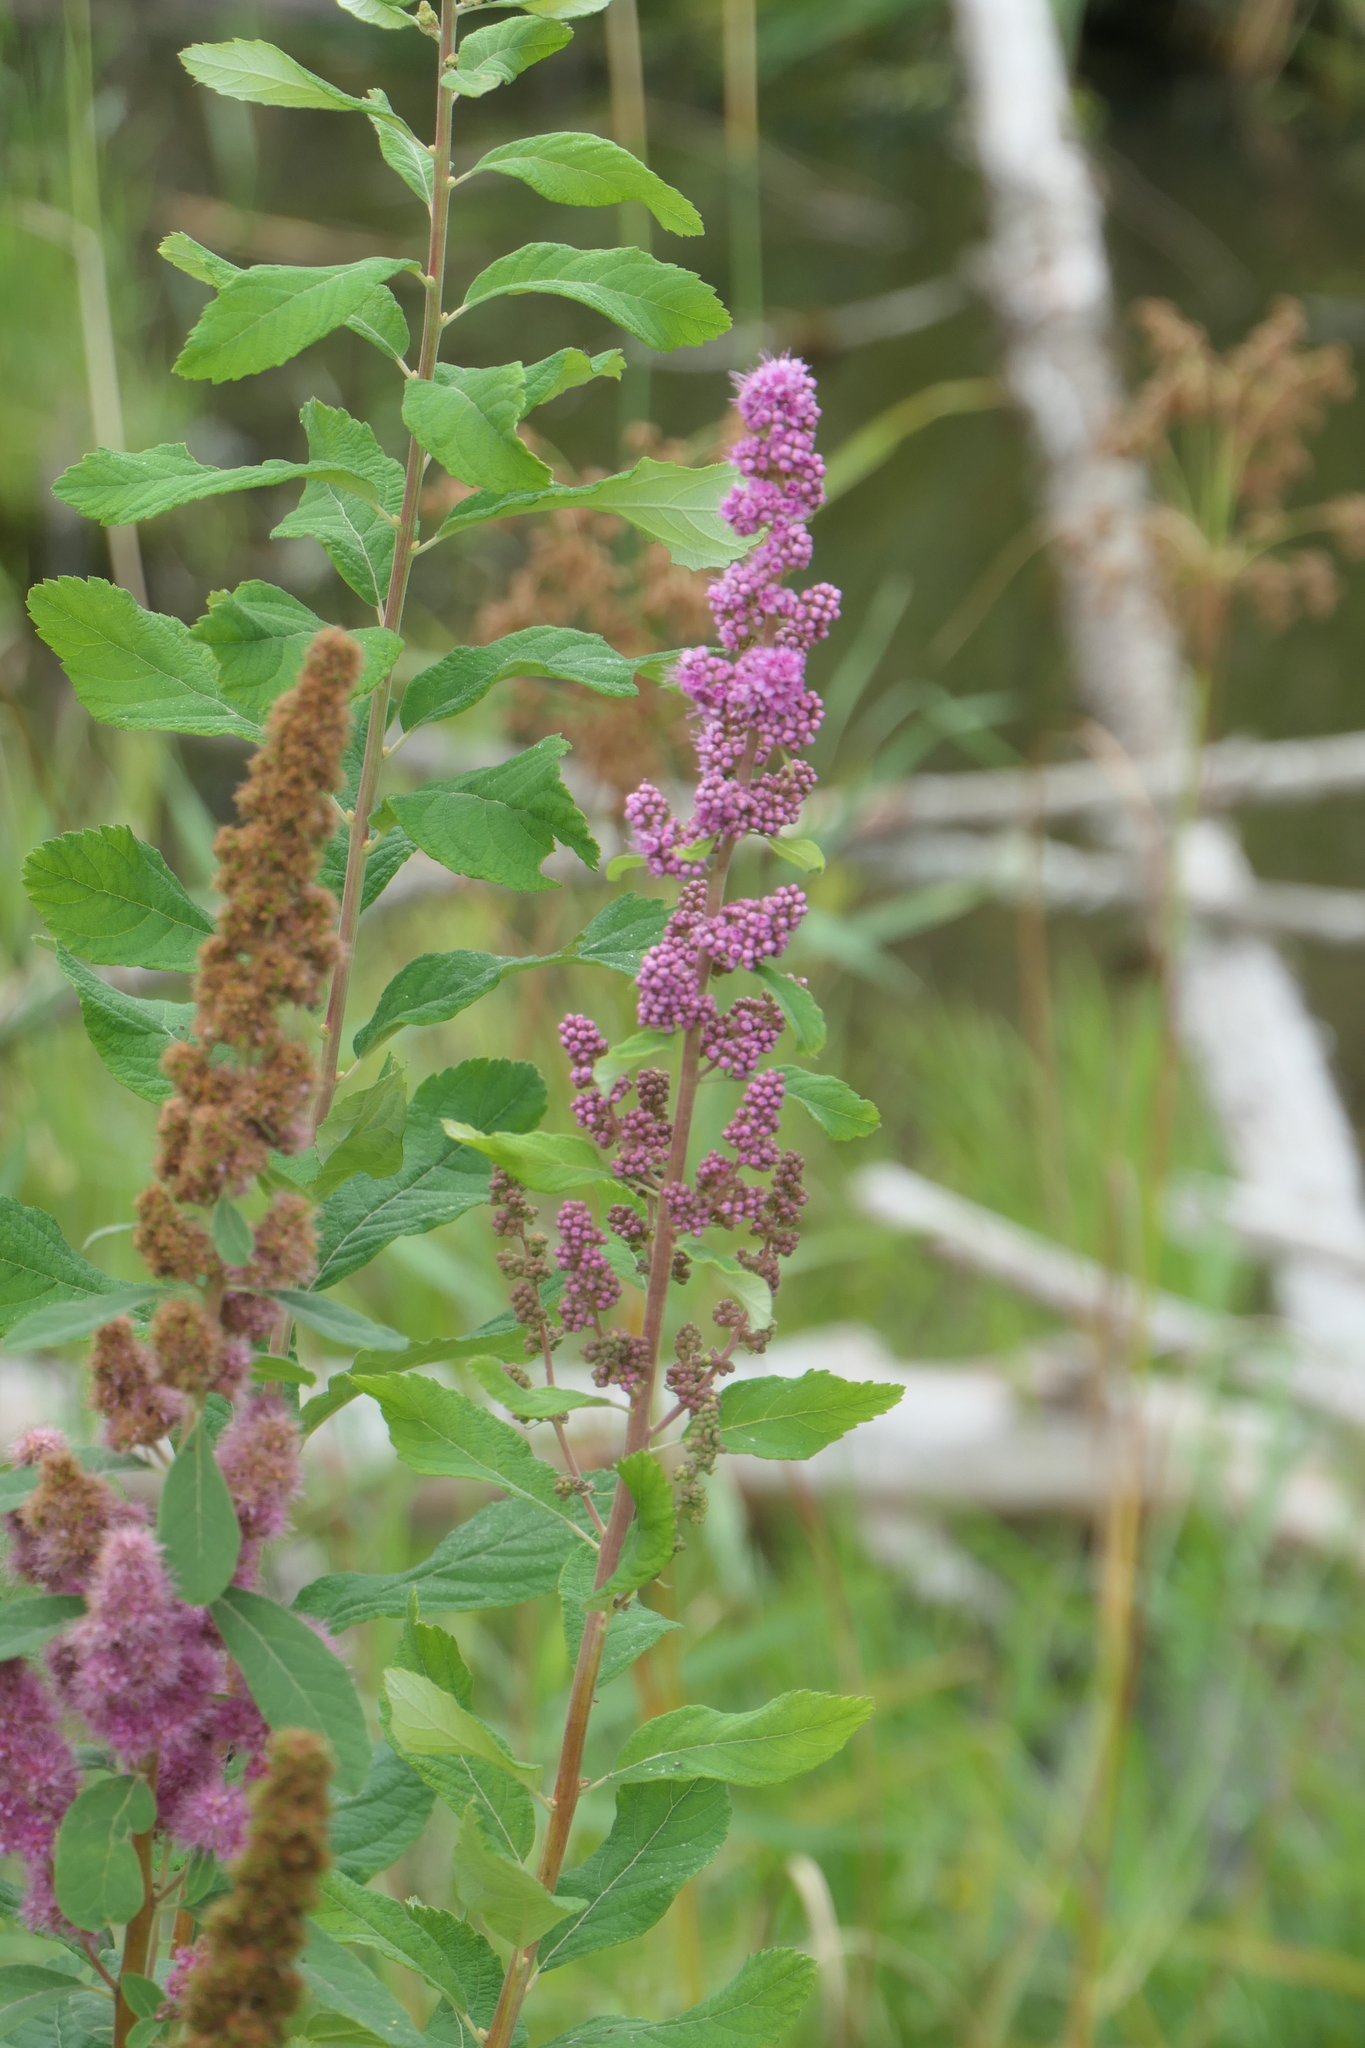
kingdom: Plantae
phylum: Tracheophyta
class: Magnoliopsida
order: Rosales
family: Rosaceae
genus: Spiraea
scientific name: Spiraea douglasii
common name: Steeplebush
